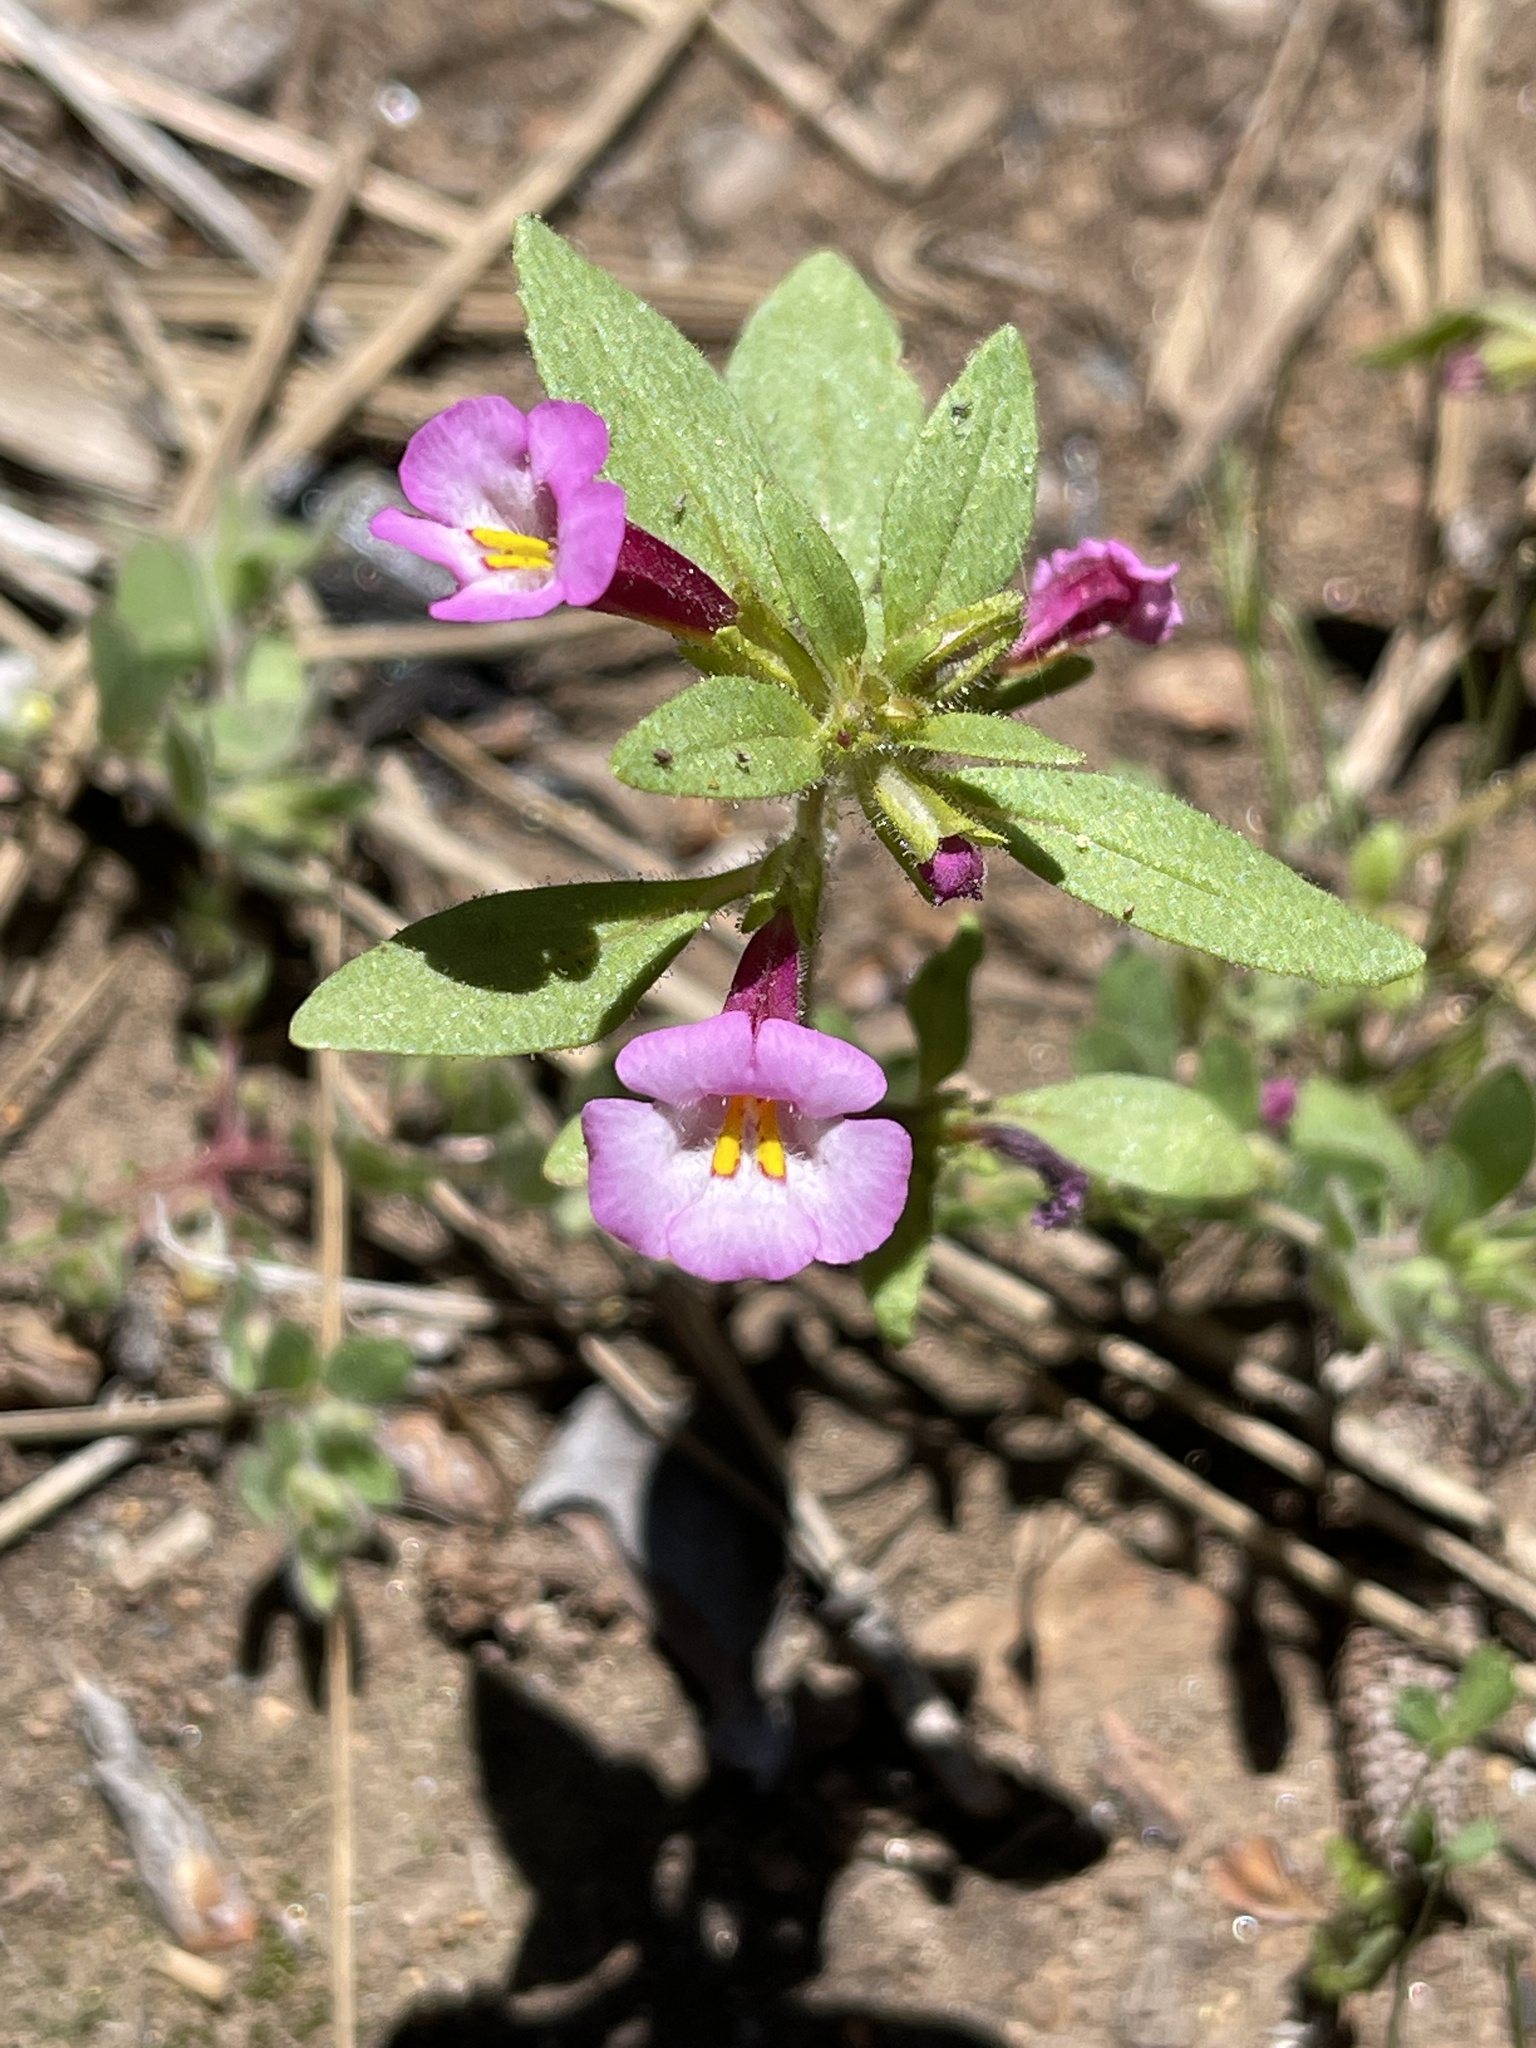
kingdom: Plantae
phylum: Tracheophyta
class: Magnoliopsida
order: Lamiales
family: Phrymaceae
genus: Diplacus
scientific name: Diplacus torreyi
